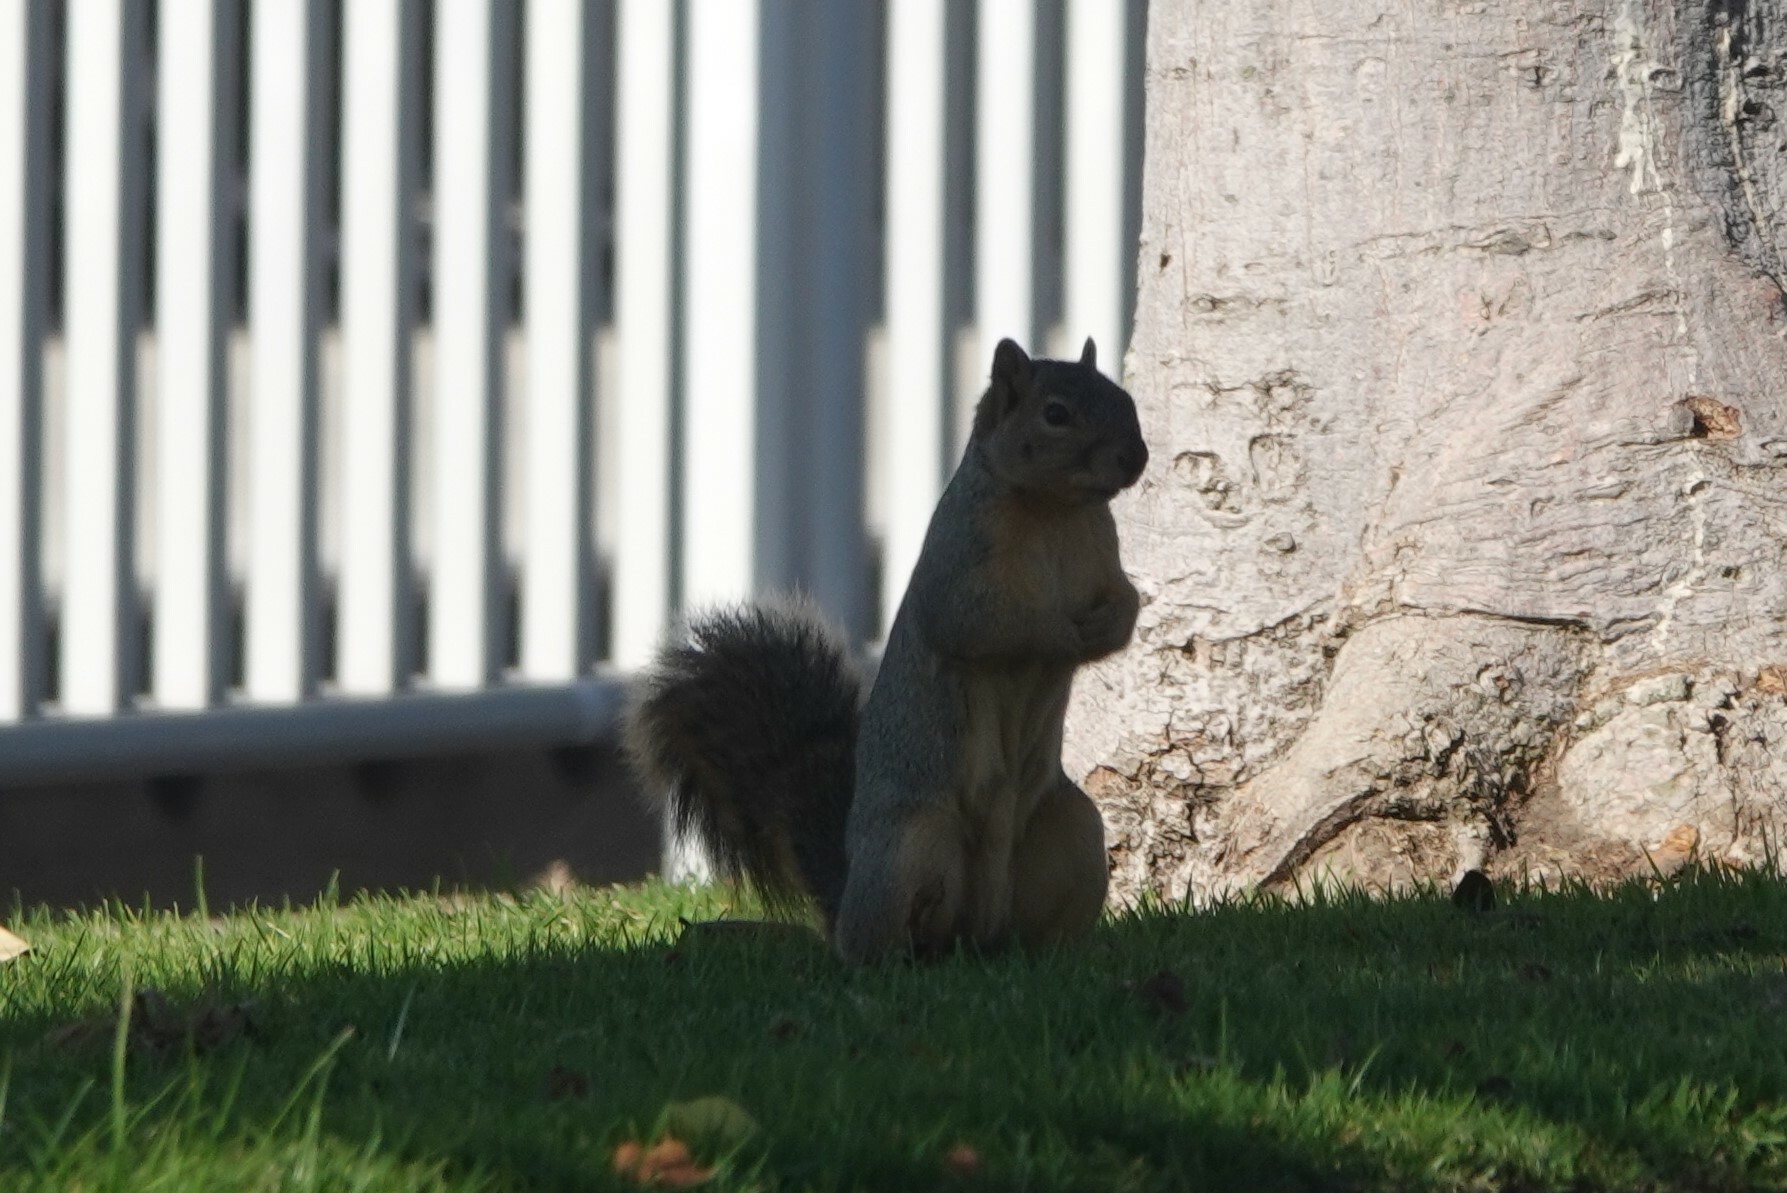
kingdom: Animalia
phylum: Chordata
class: Mammalia
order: Rodentia
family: Sciuridae
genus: Sciurus
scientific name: Sciurus niger
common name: Fox squirrel
